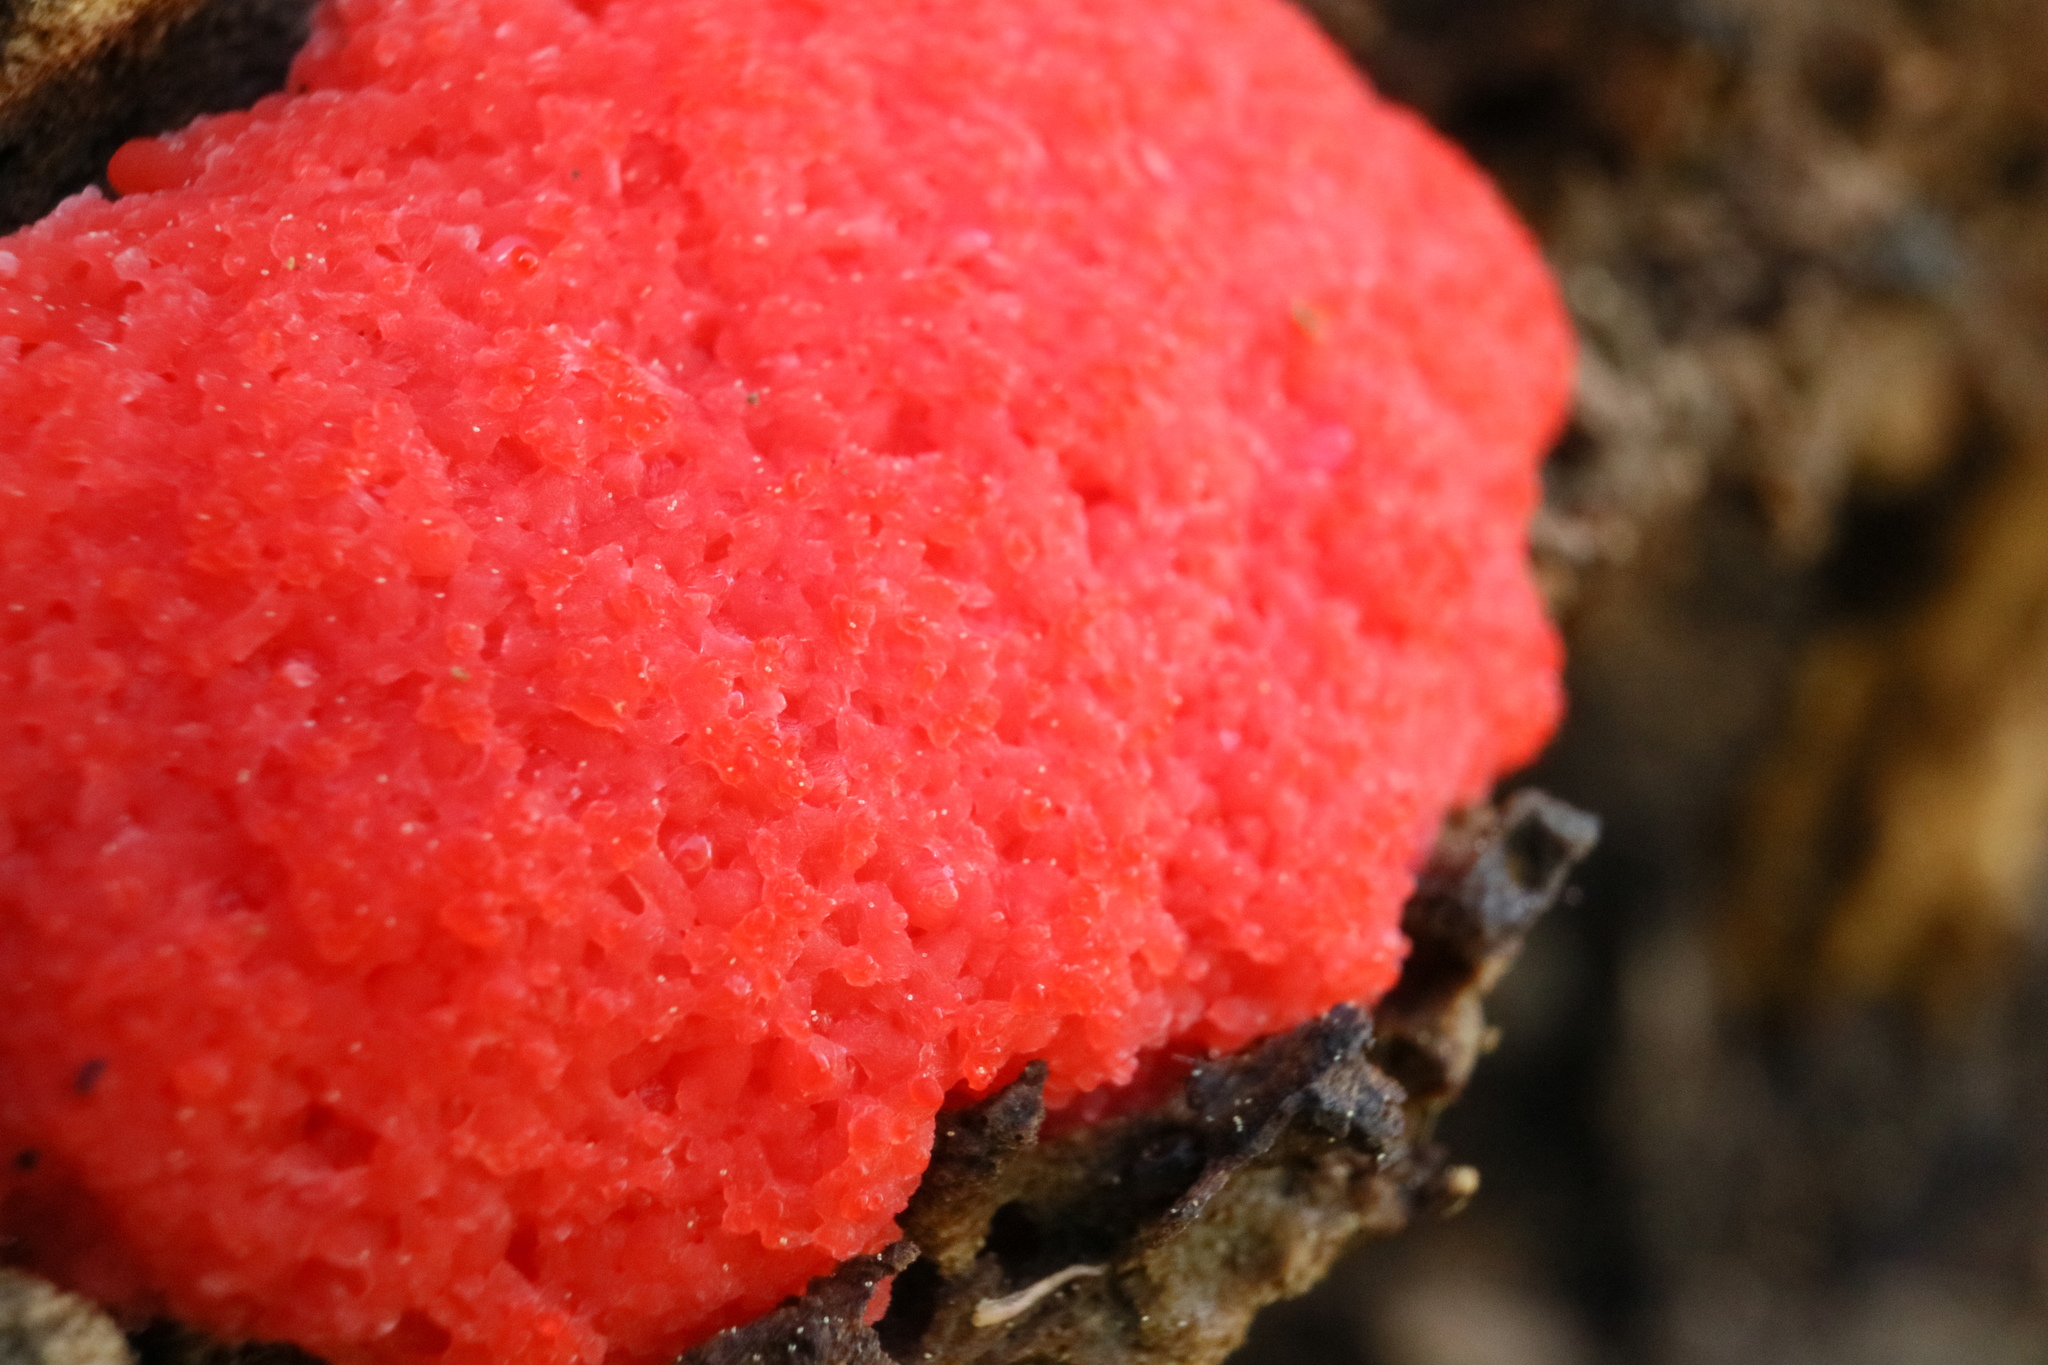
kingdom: Protozoa
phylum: Mycetozoa
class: Myxomycetes
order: Cribrariales
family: Tubiferaceae
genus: Tubifera
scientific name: Tubifera ferruginosa
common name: Red raspberry slime mold
